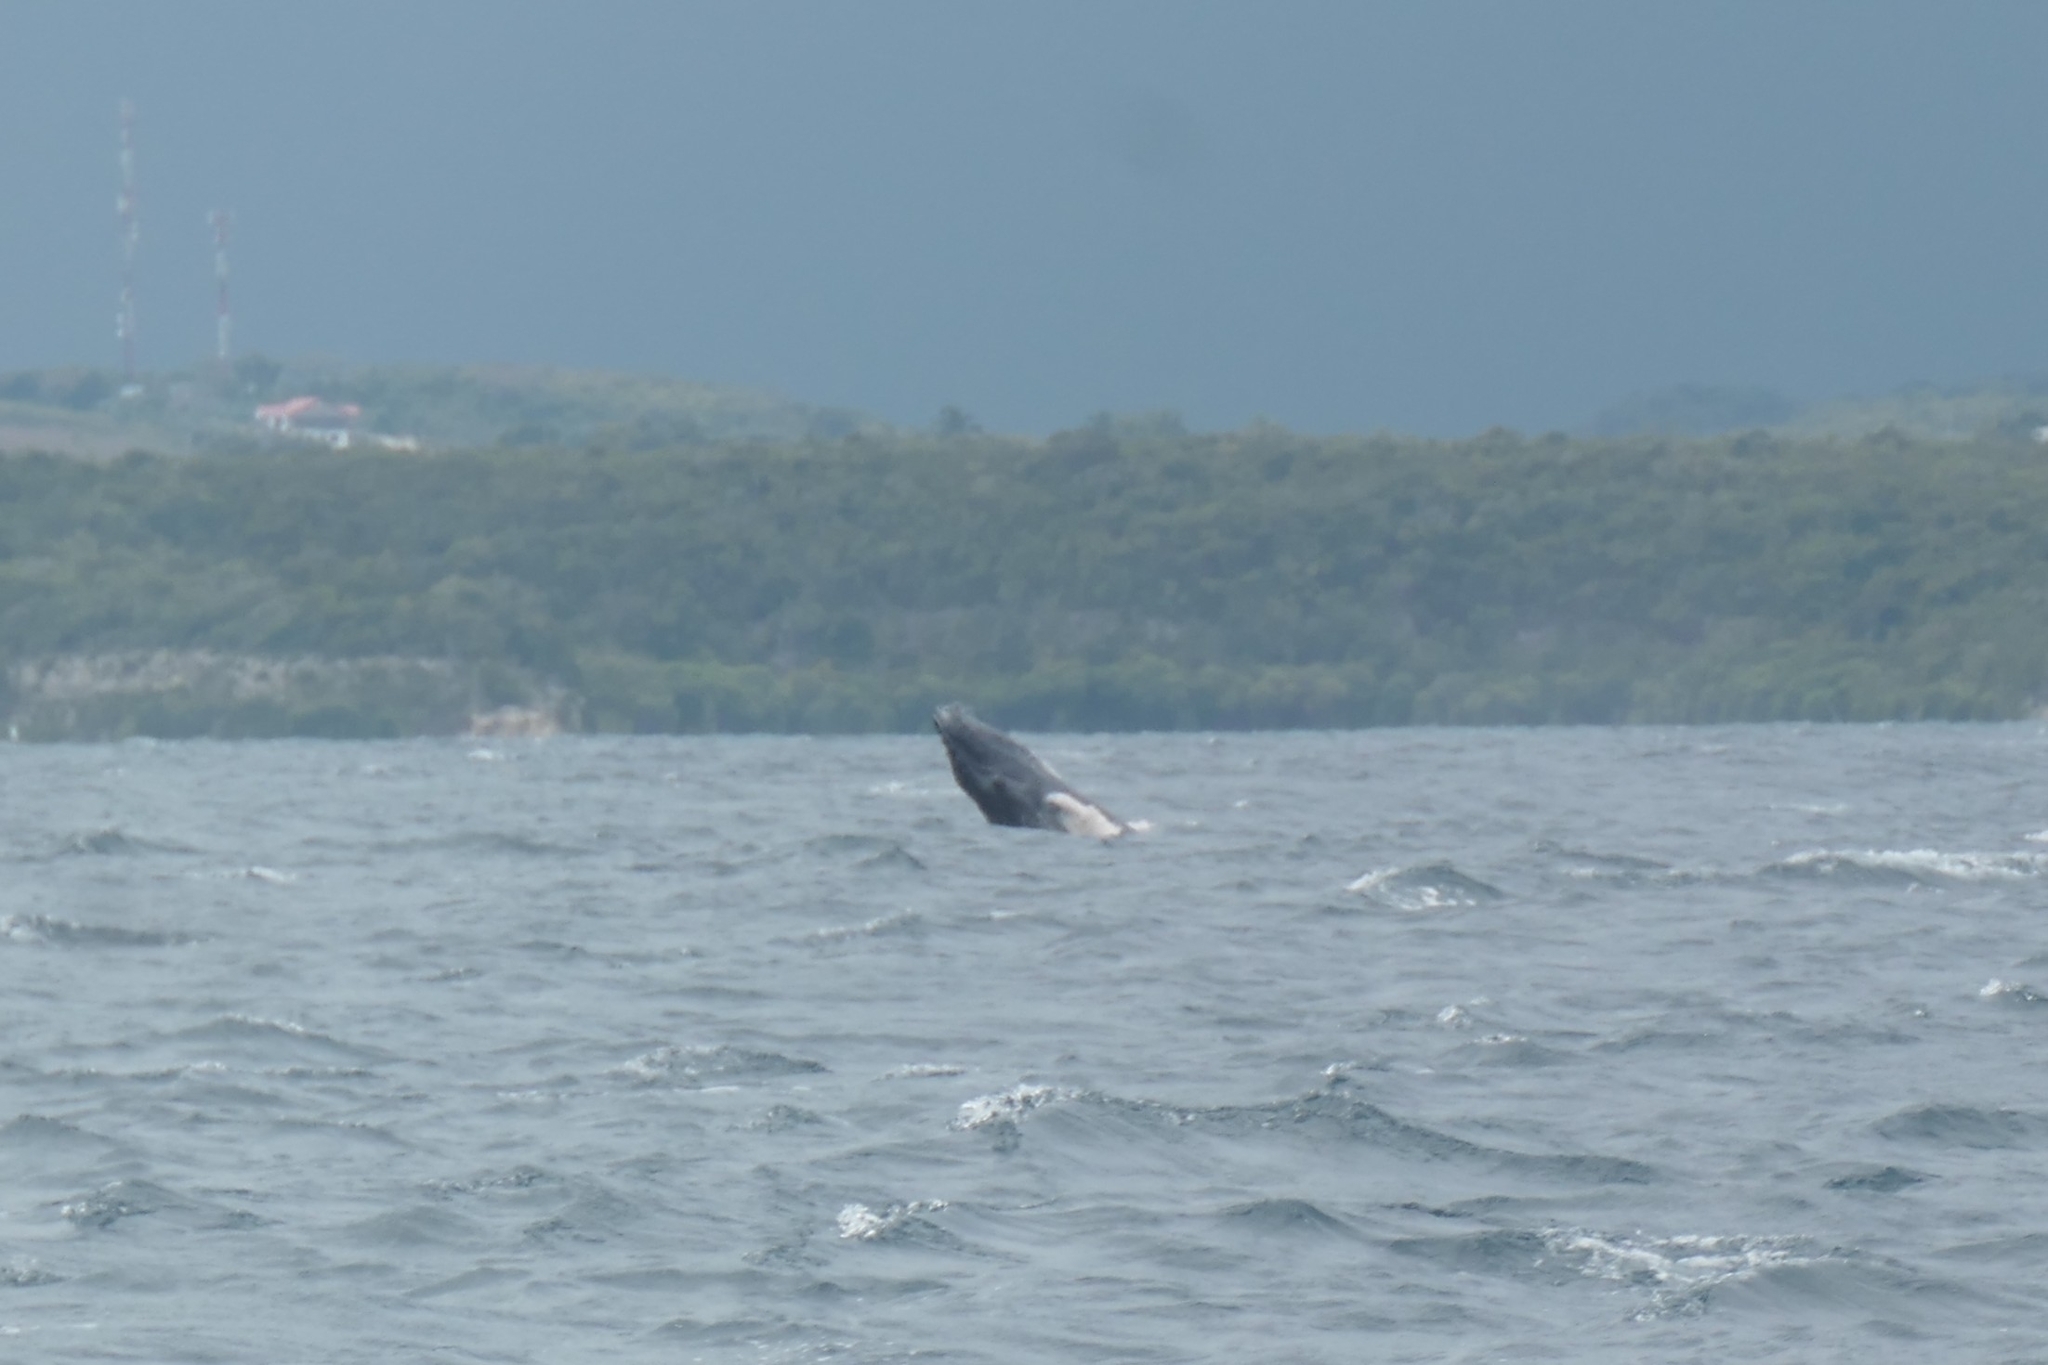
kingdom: Animalia
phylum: Chordata
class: Mammalia
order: Cetacea
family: Balaenopteridae
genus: Megaptera
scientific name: Megaptera novaeangliae
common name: Humpback whale
